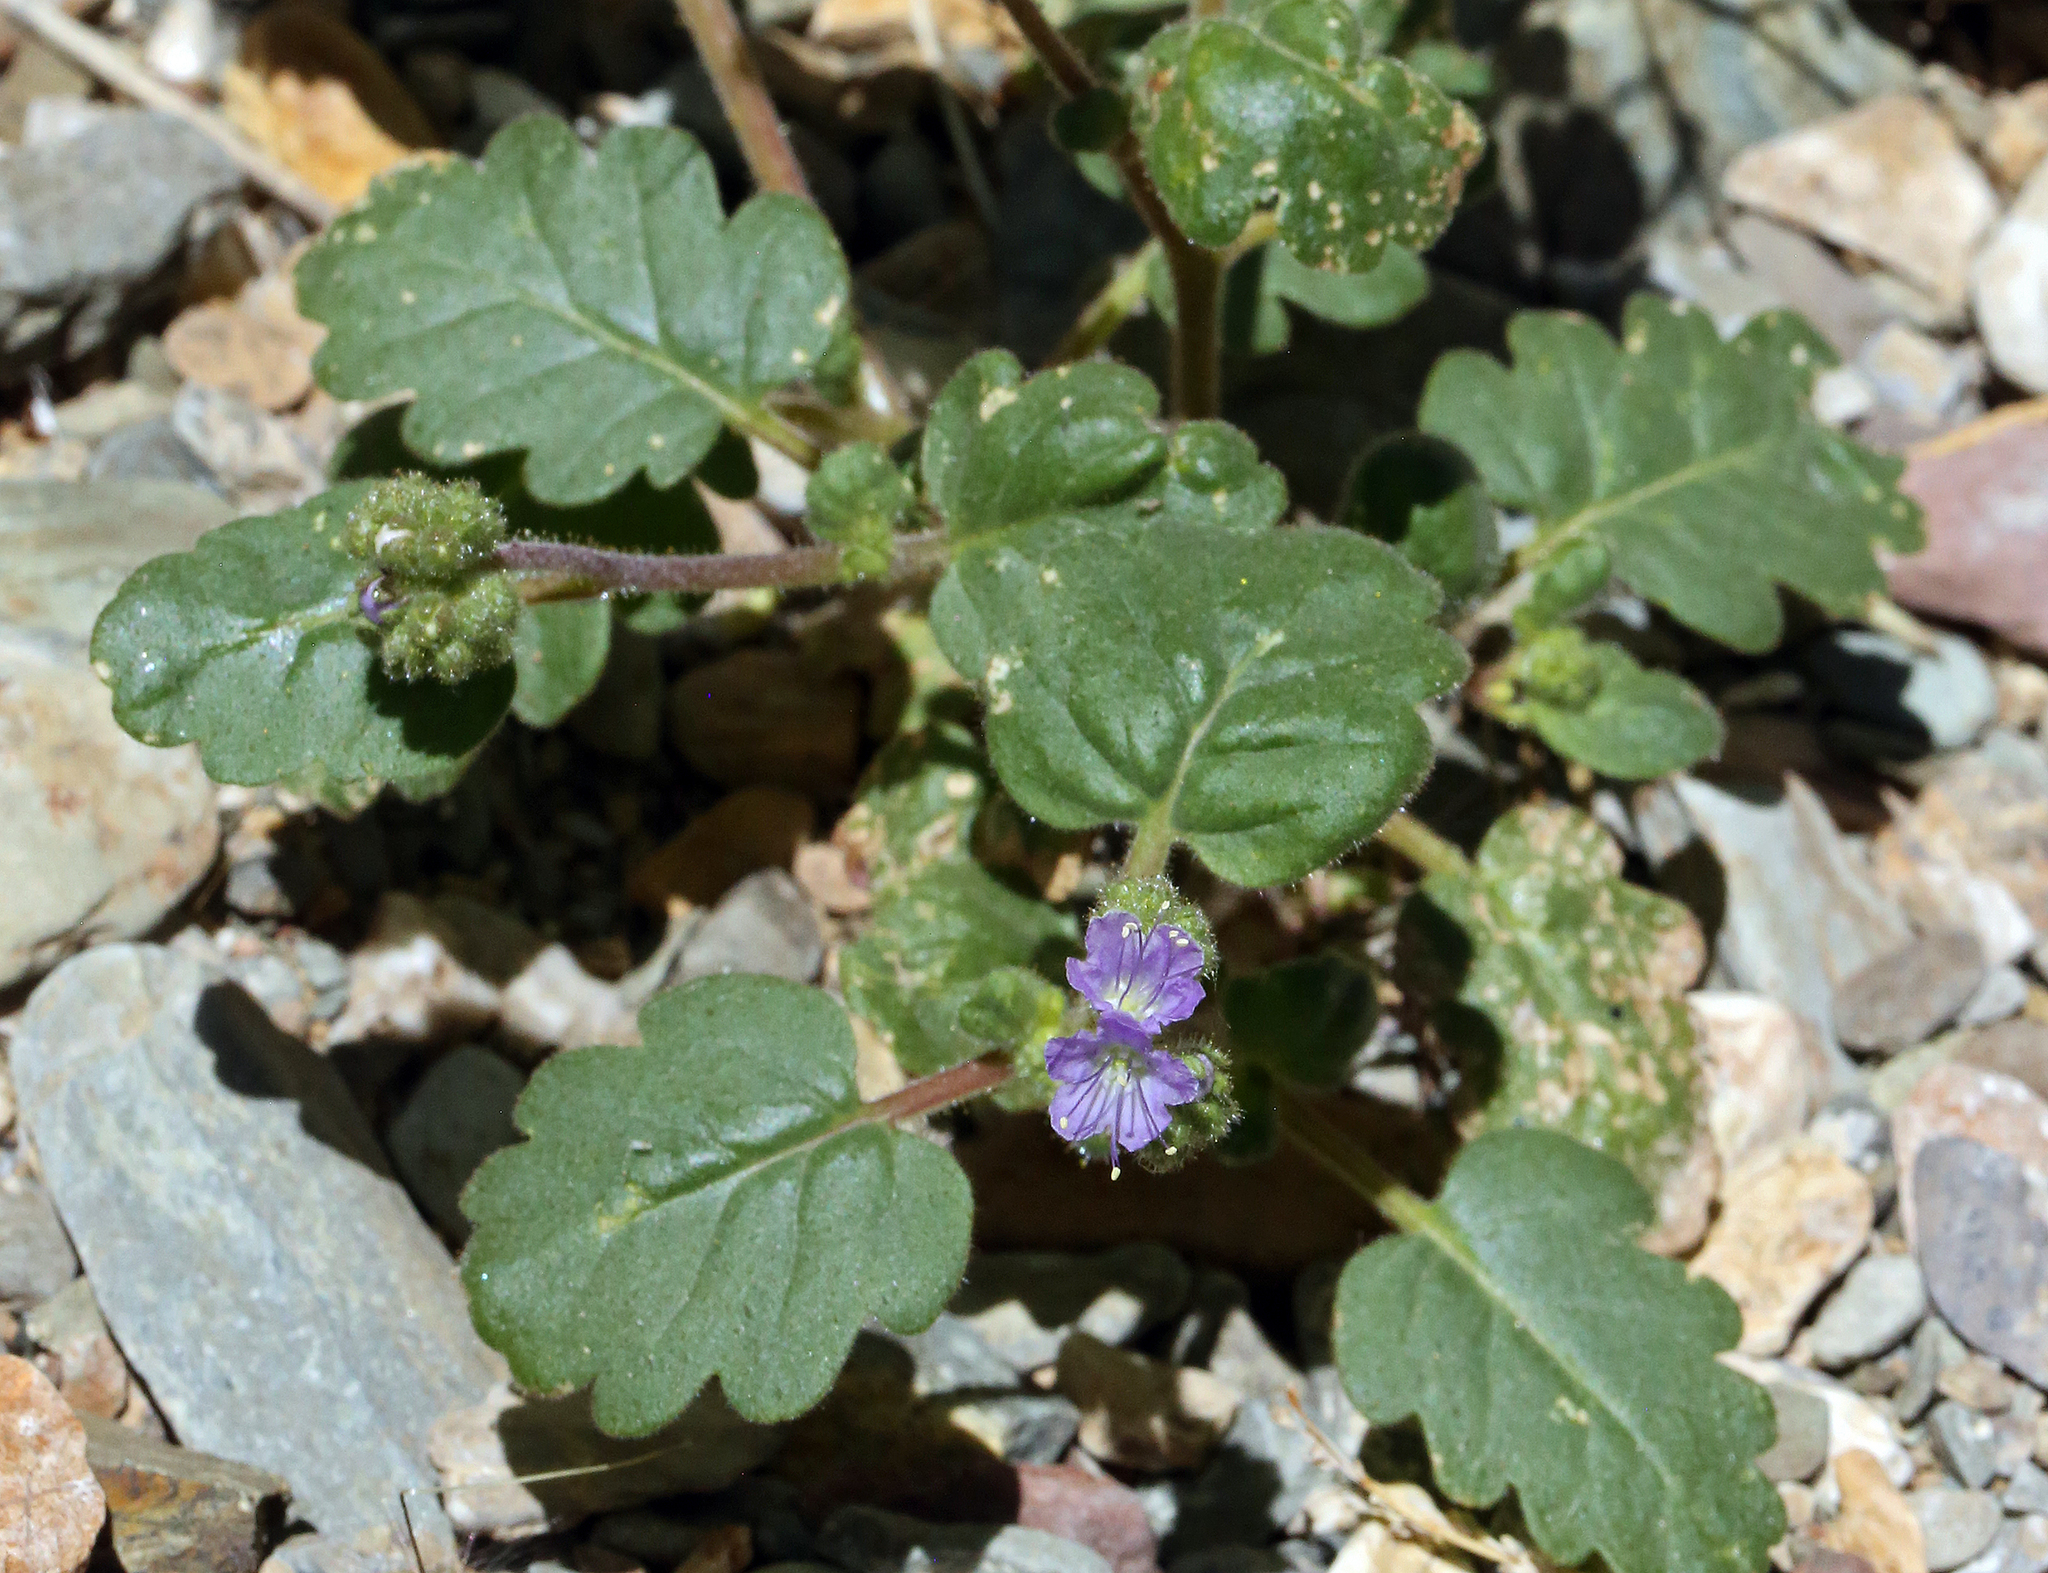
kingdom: Plantae
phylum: Tracheophyta
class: Magnoliopsida
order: Boraginales
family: Hydrophyllaceae
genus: Phacelia
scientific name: Phacelia crenulata
